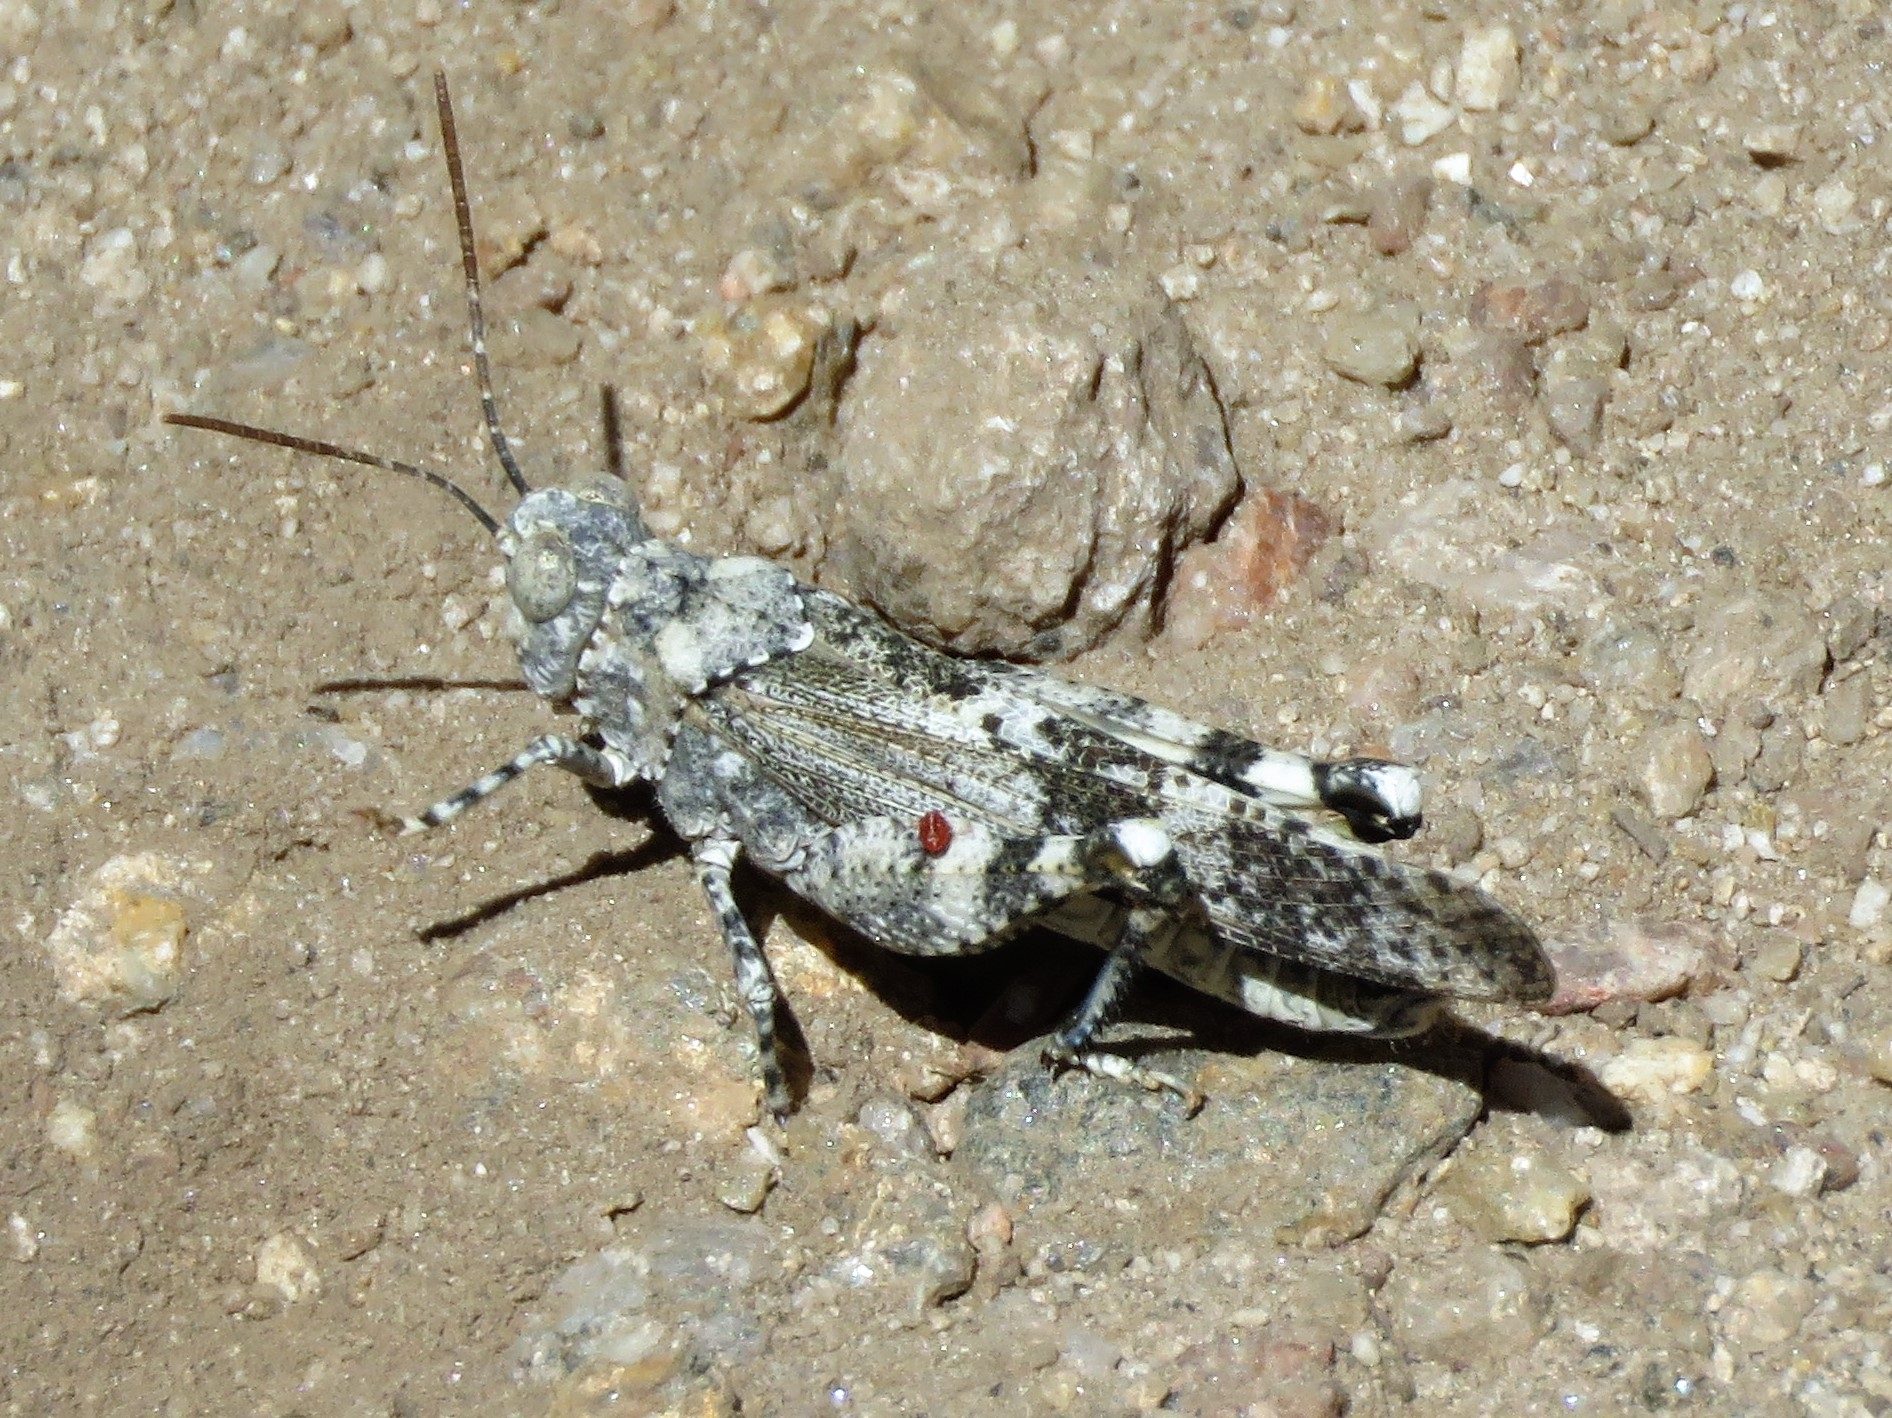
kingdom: Animalia
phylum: Arthropoda
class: Insecta
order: Orthoptera
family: Acrididae
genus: Oedipoda
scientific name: Oedipoda coerulea
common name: Iberian band-winged grasshopper
